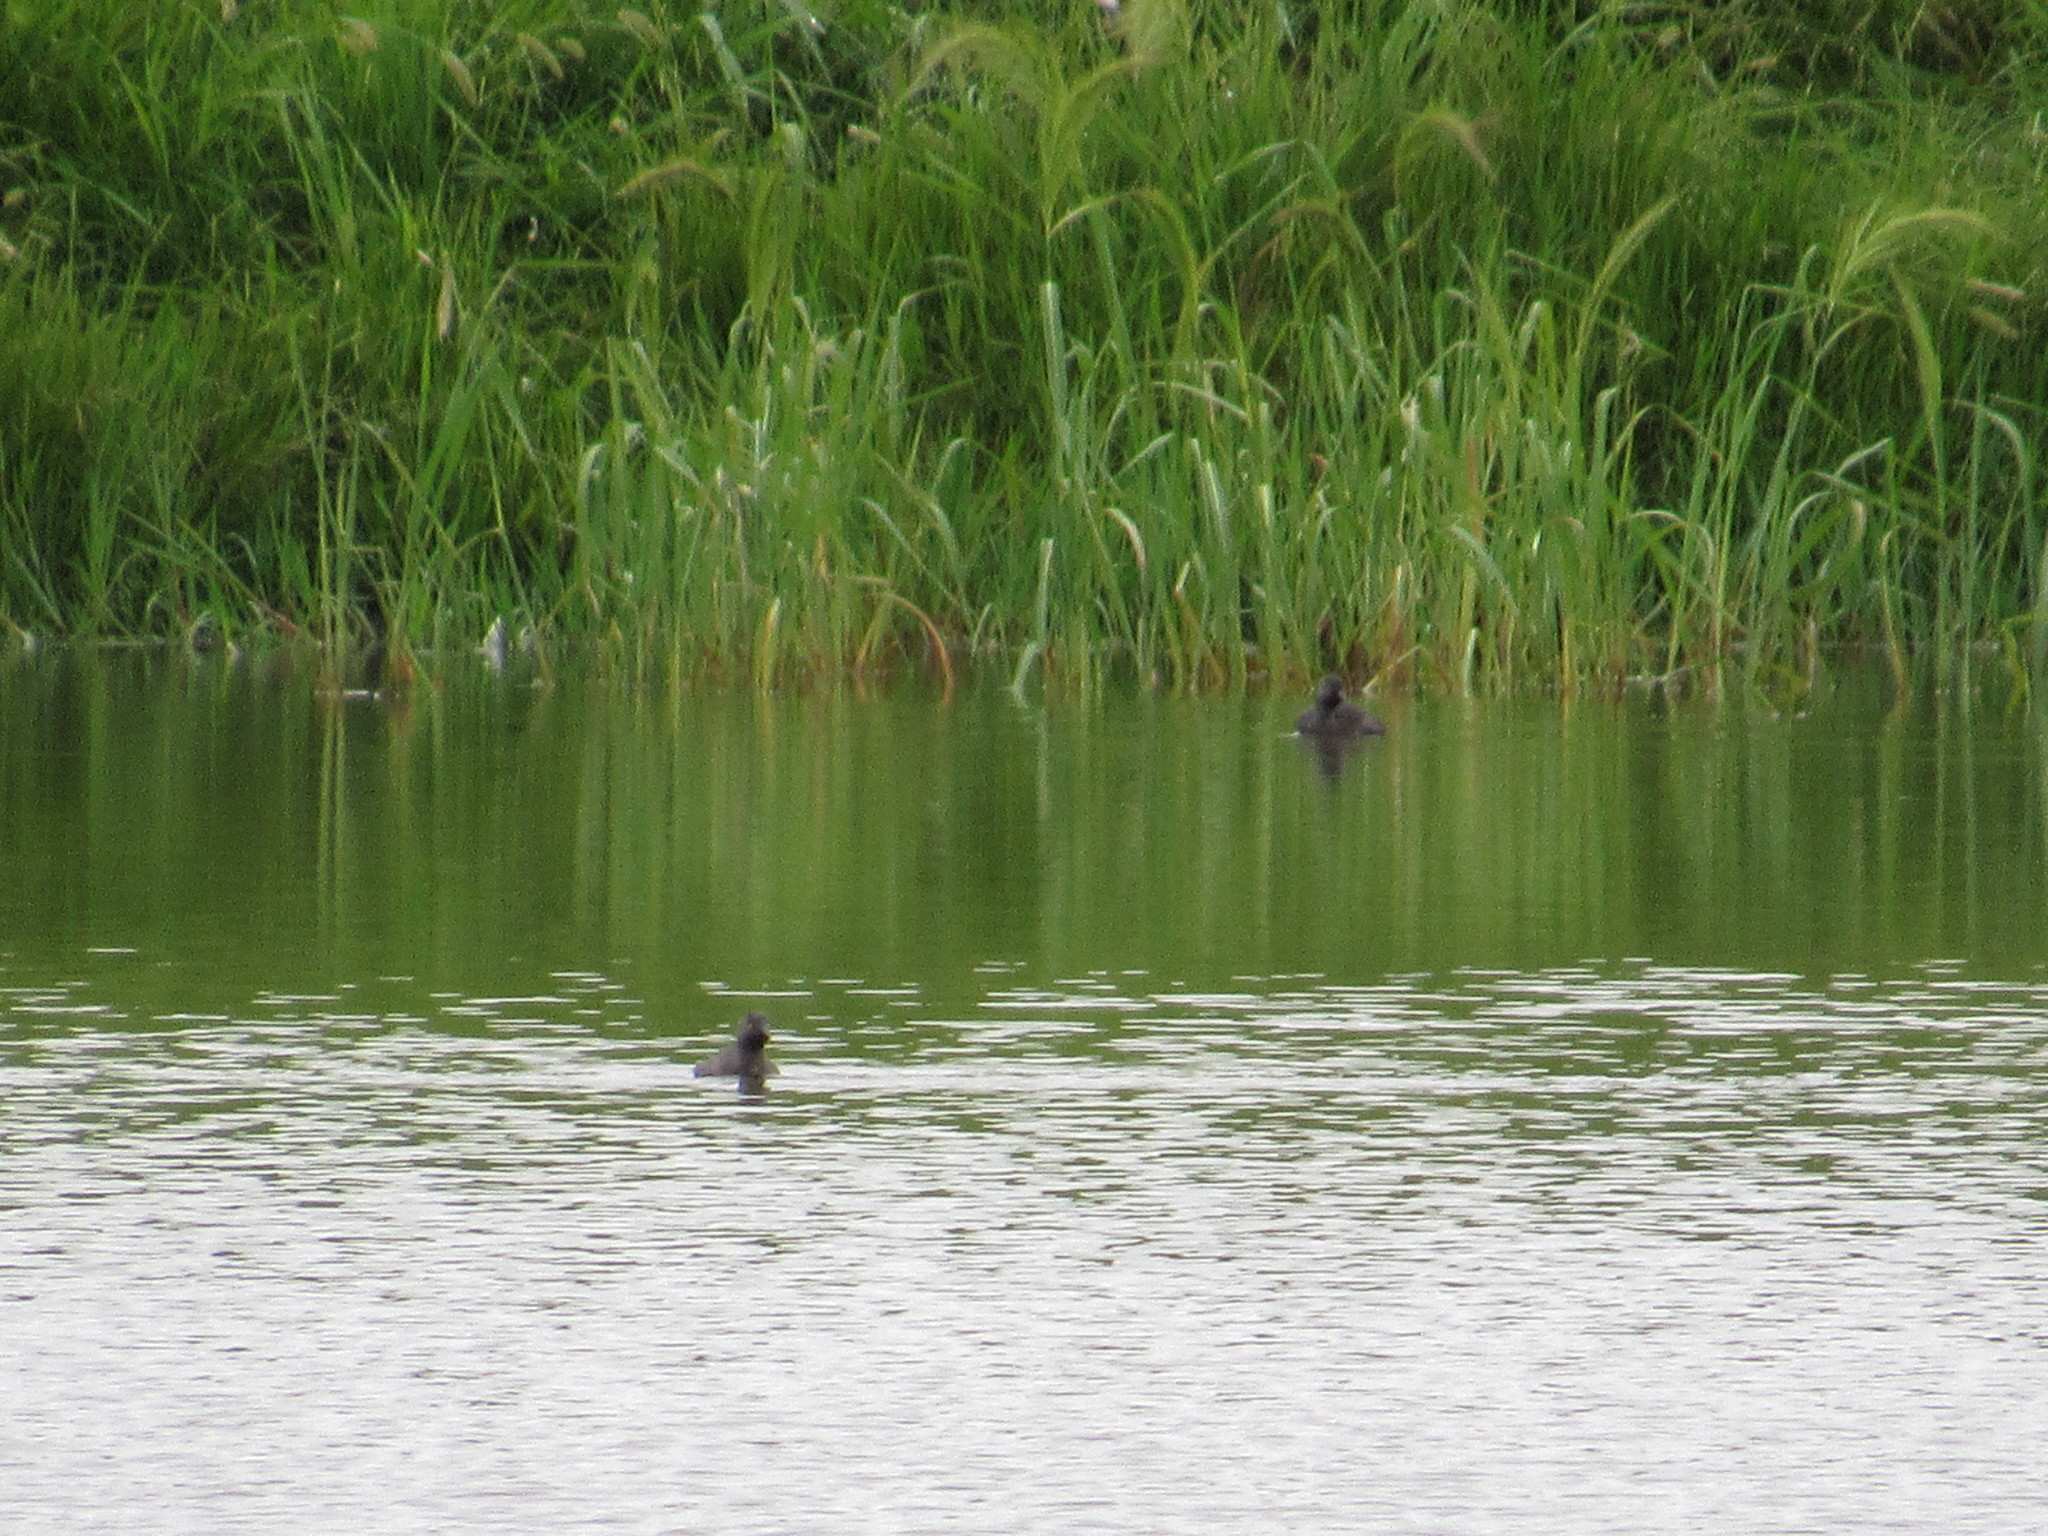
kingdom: Animalia
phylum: Chordata
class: Aves
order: Podicipediformes
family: Podicipedidae
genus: Tachybaptus
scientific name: Tachybaptus dominicus
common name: Least grebe
